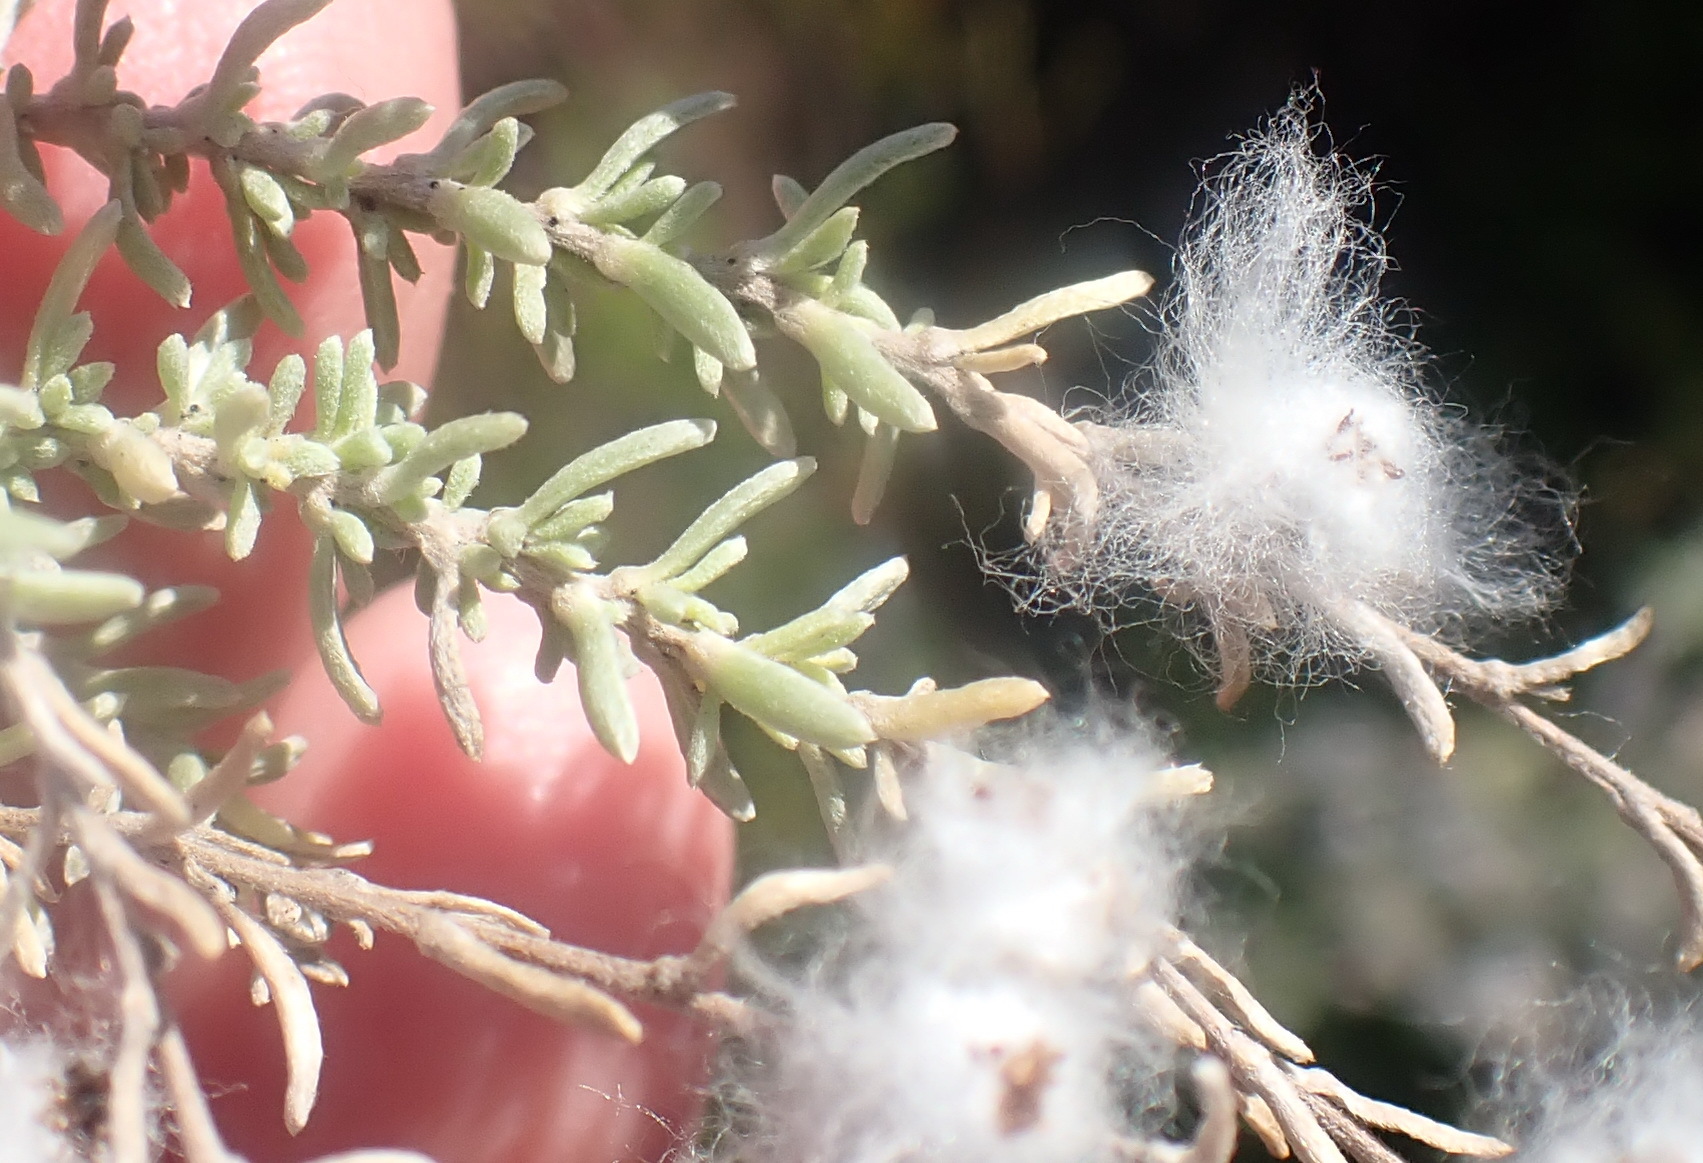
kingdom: Plantae
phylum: Tracheophyta
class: Magnoliopsida
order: Asterales
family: Asteraceae
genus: Eriocephalus
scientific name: Eriocephalus racemosus
